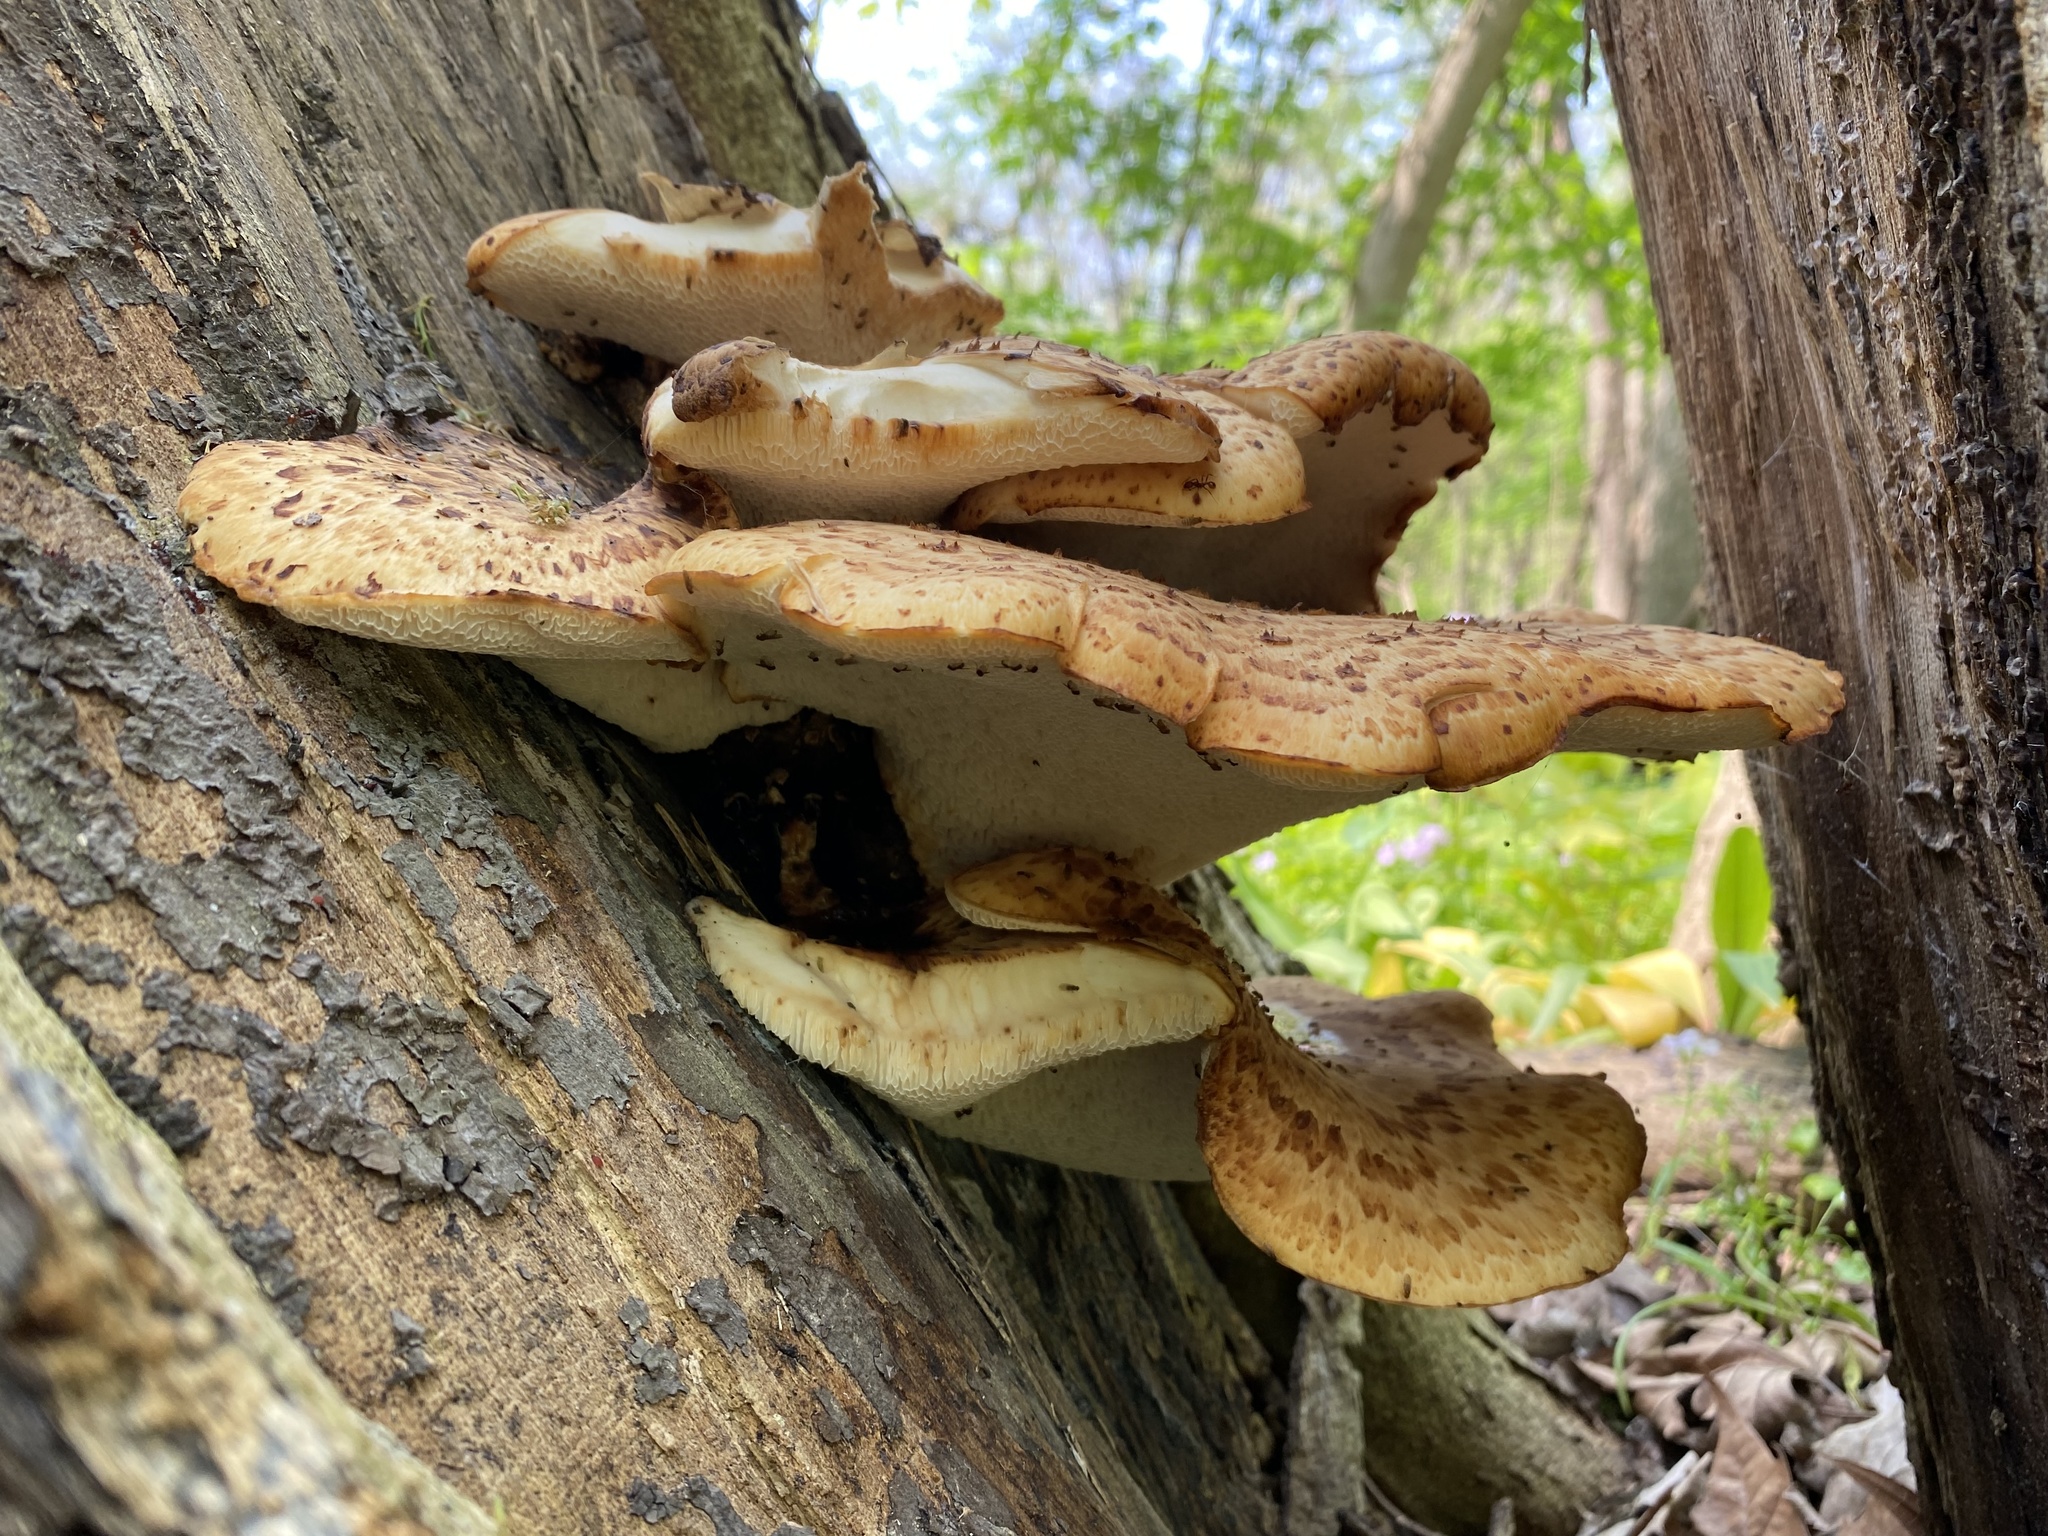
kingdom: Fungi
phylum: Basidiomycota
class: Agaricomycetes
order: Polyporales
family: Polyporaceae
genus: Cerioporus
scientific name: Cerioporus squamosus
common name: Dryad's saddle
